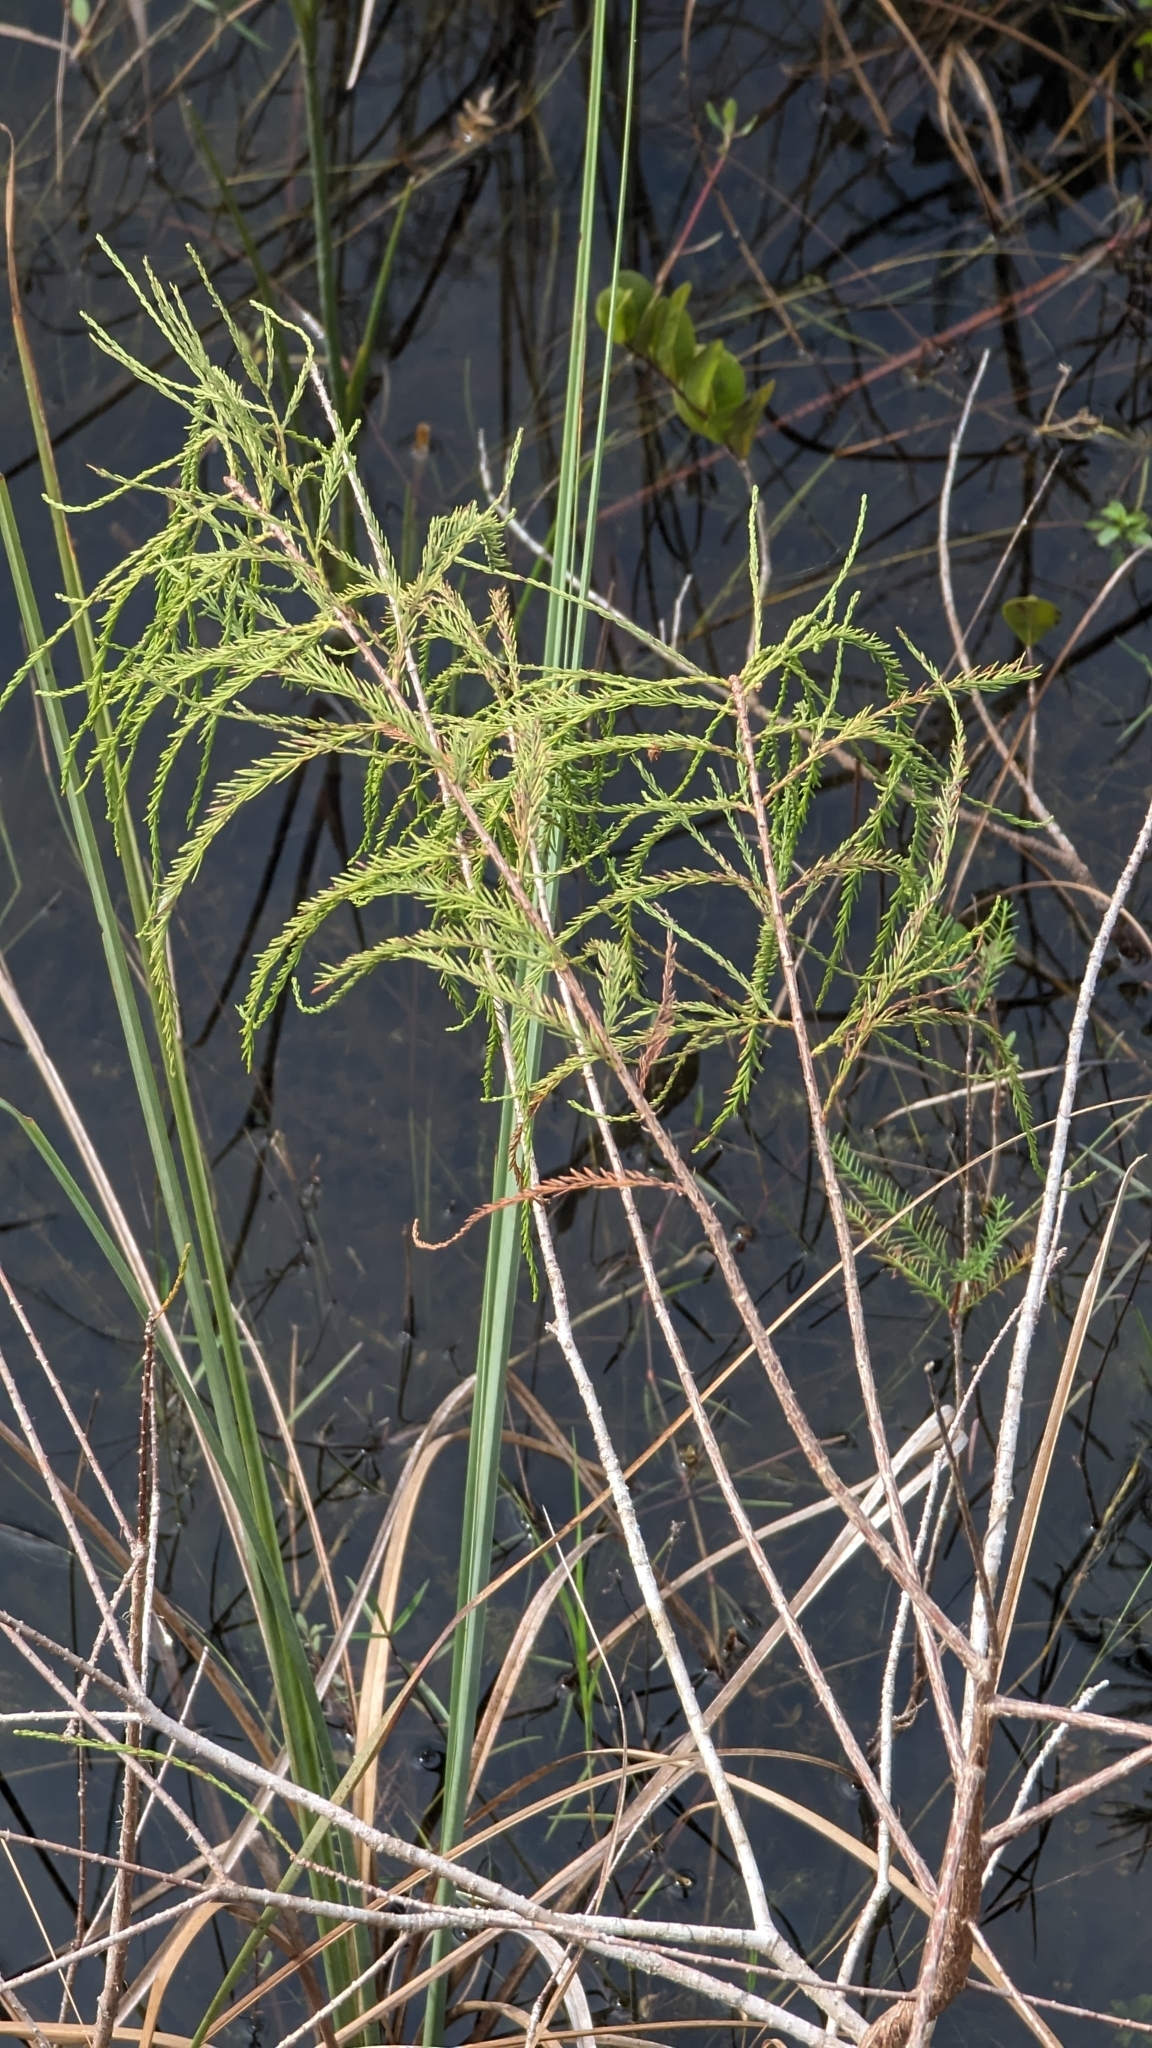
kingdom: Plantae
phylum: Tracheophyta
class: Pinopsida
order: Pinales
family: Cupressaceae
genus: Taxodium
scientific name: Taxodium distichum
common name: Bald cypress
